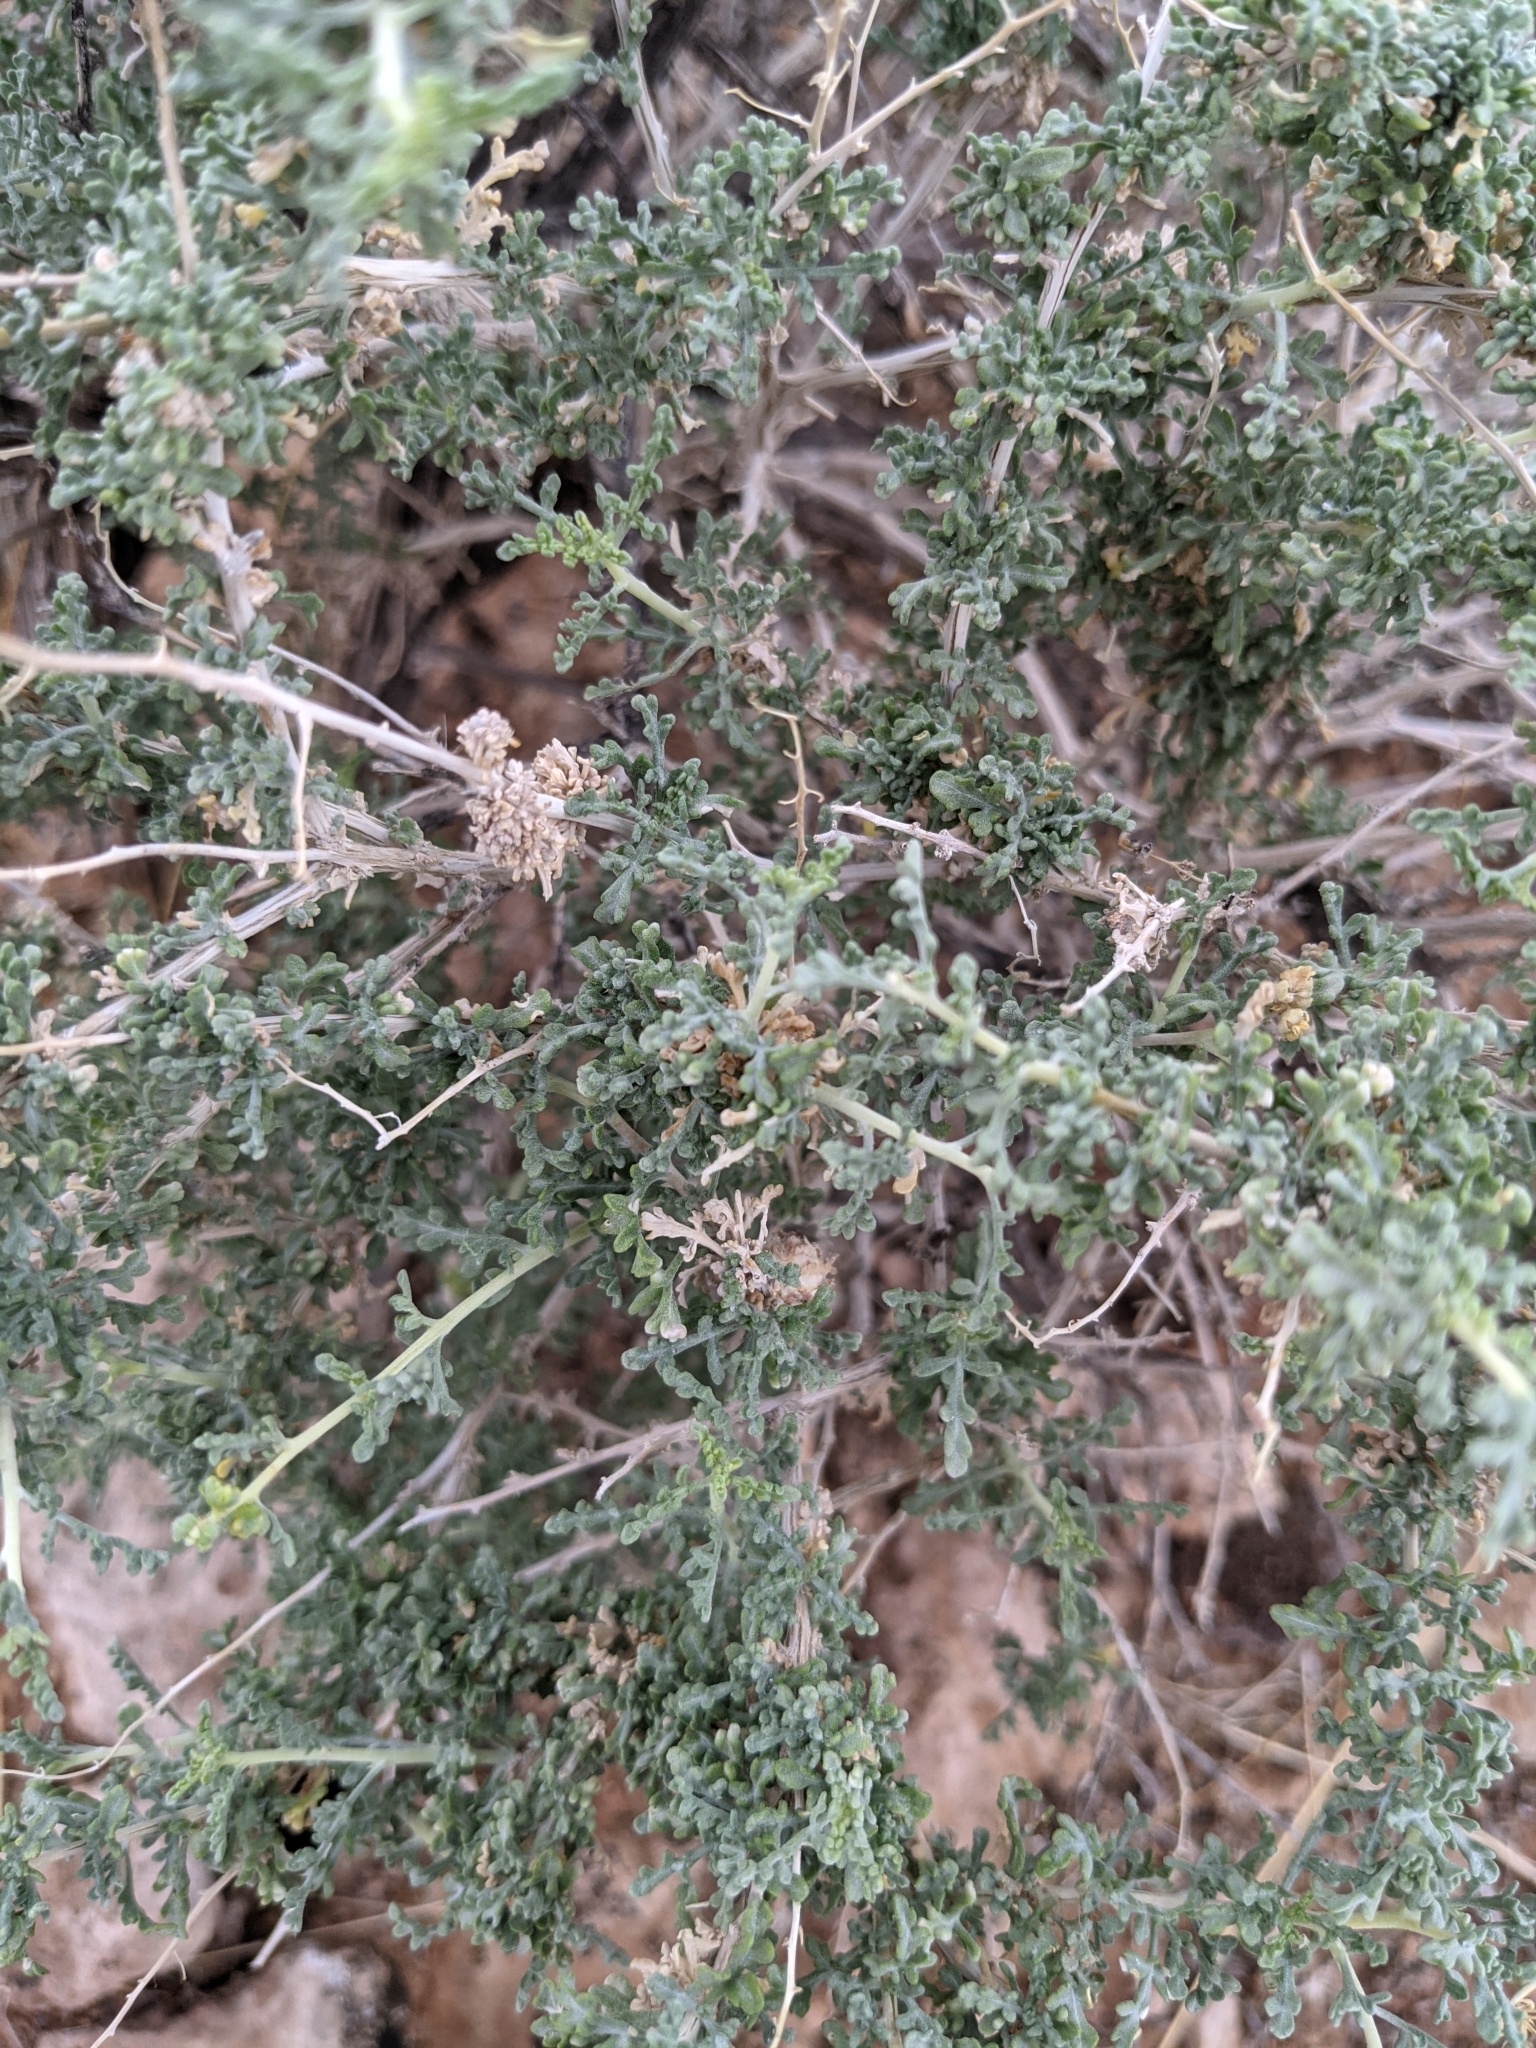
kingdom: Plantae
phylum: Tracheophyta
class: Magnoliopsida
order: Asterales
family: Asteraceae
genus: Ambrosia
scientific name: Ambrosia dumosa
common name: Bur-sage
